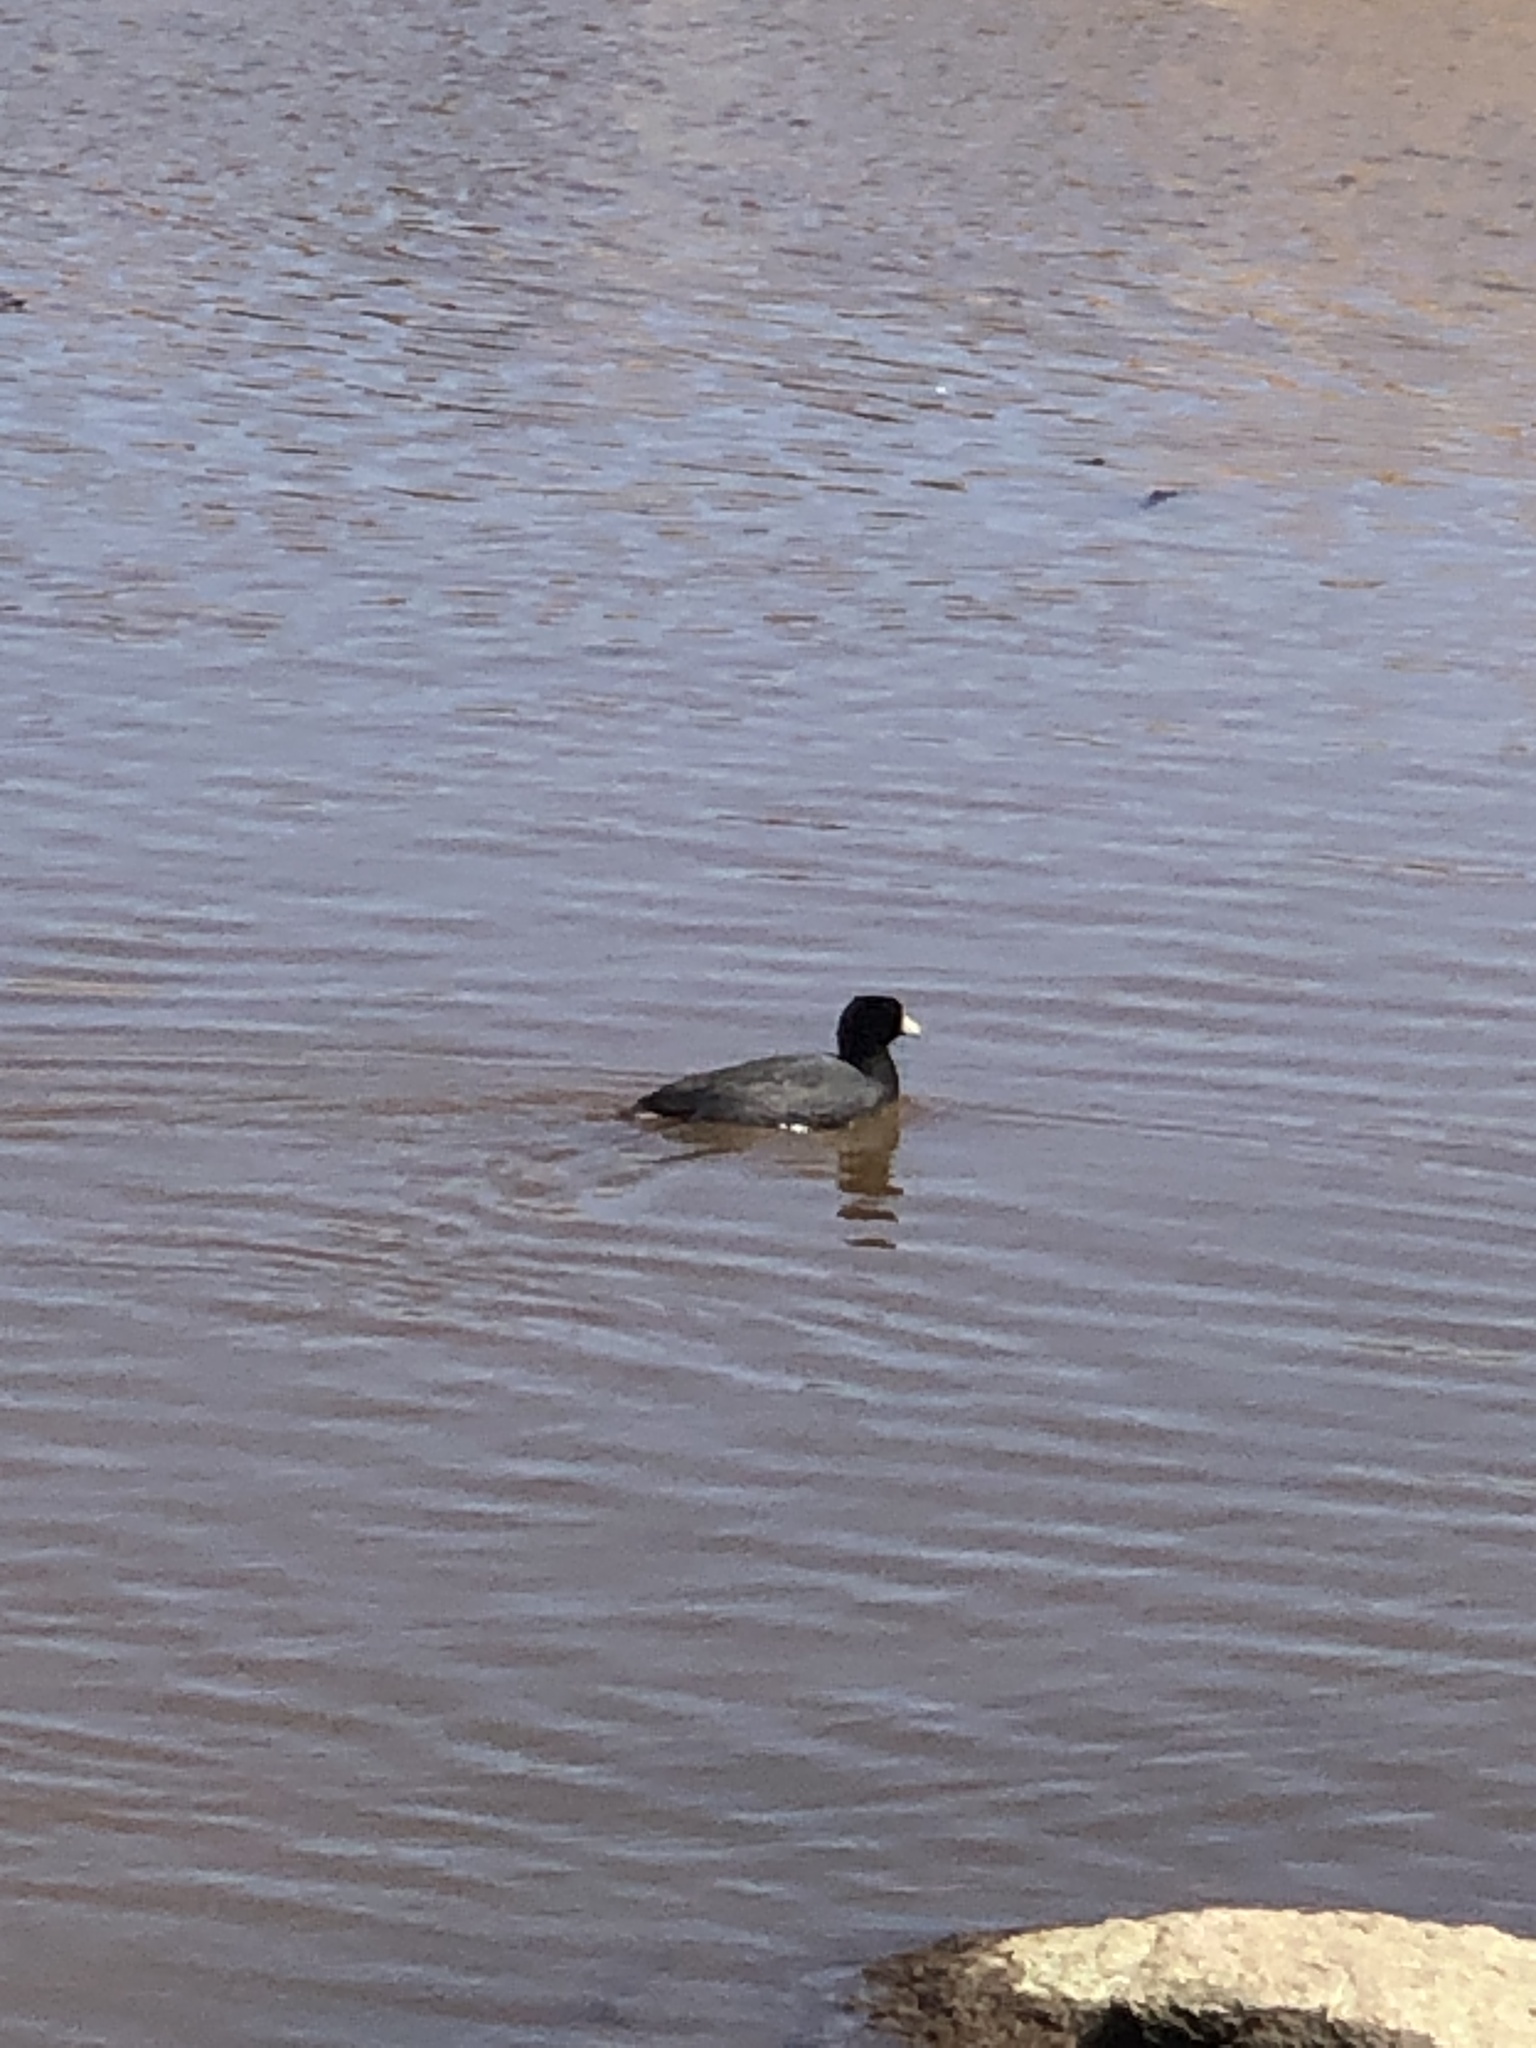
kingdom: Animalia
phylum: Chordata
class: Aves
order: Gruiformes
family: Rallidae
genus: Fulica
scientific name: Fulica americana
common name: American coot
